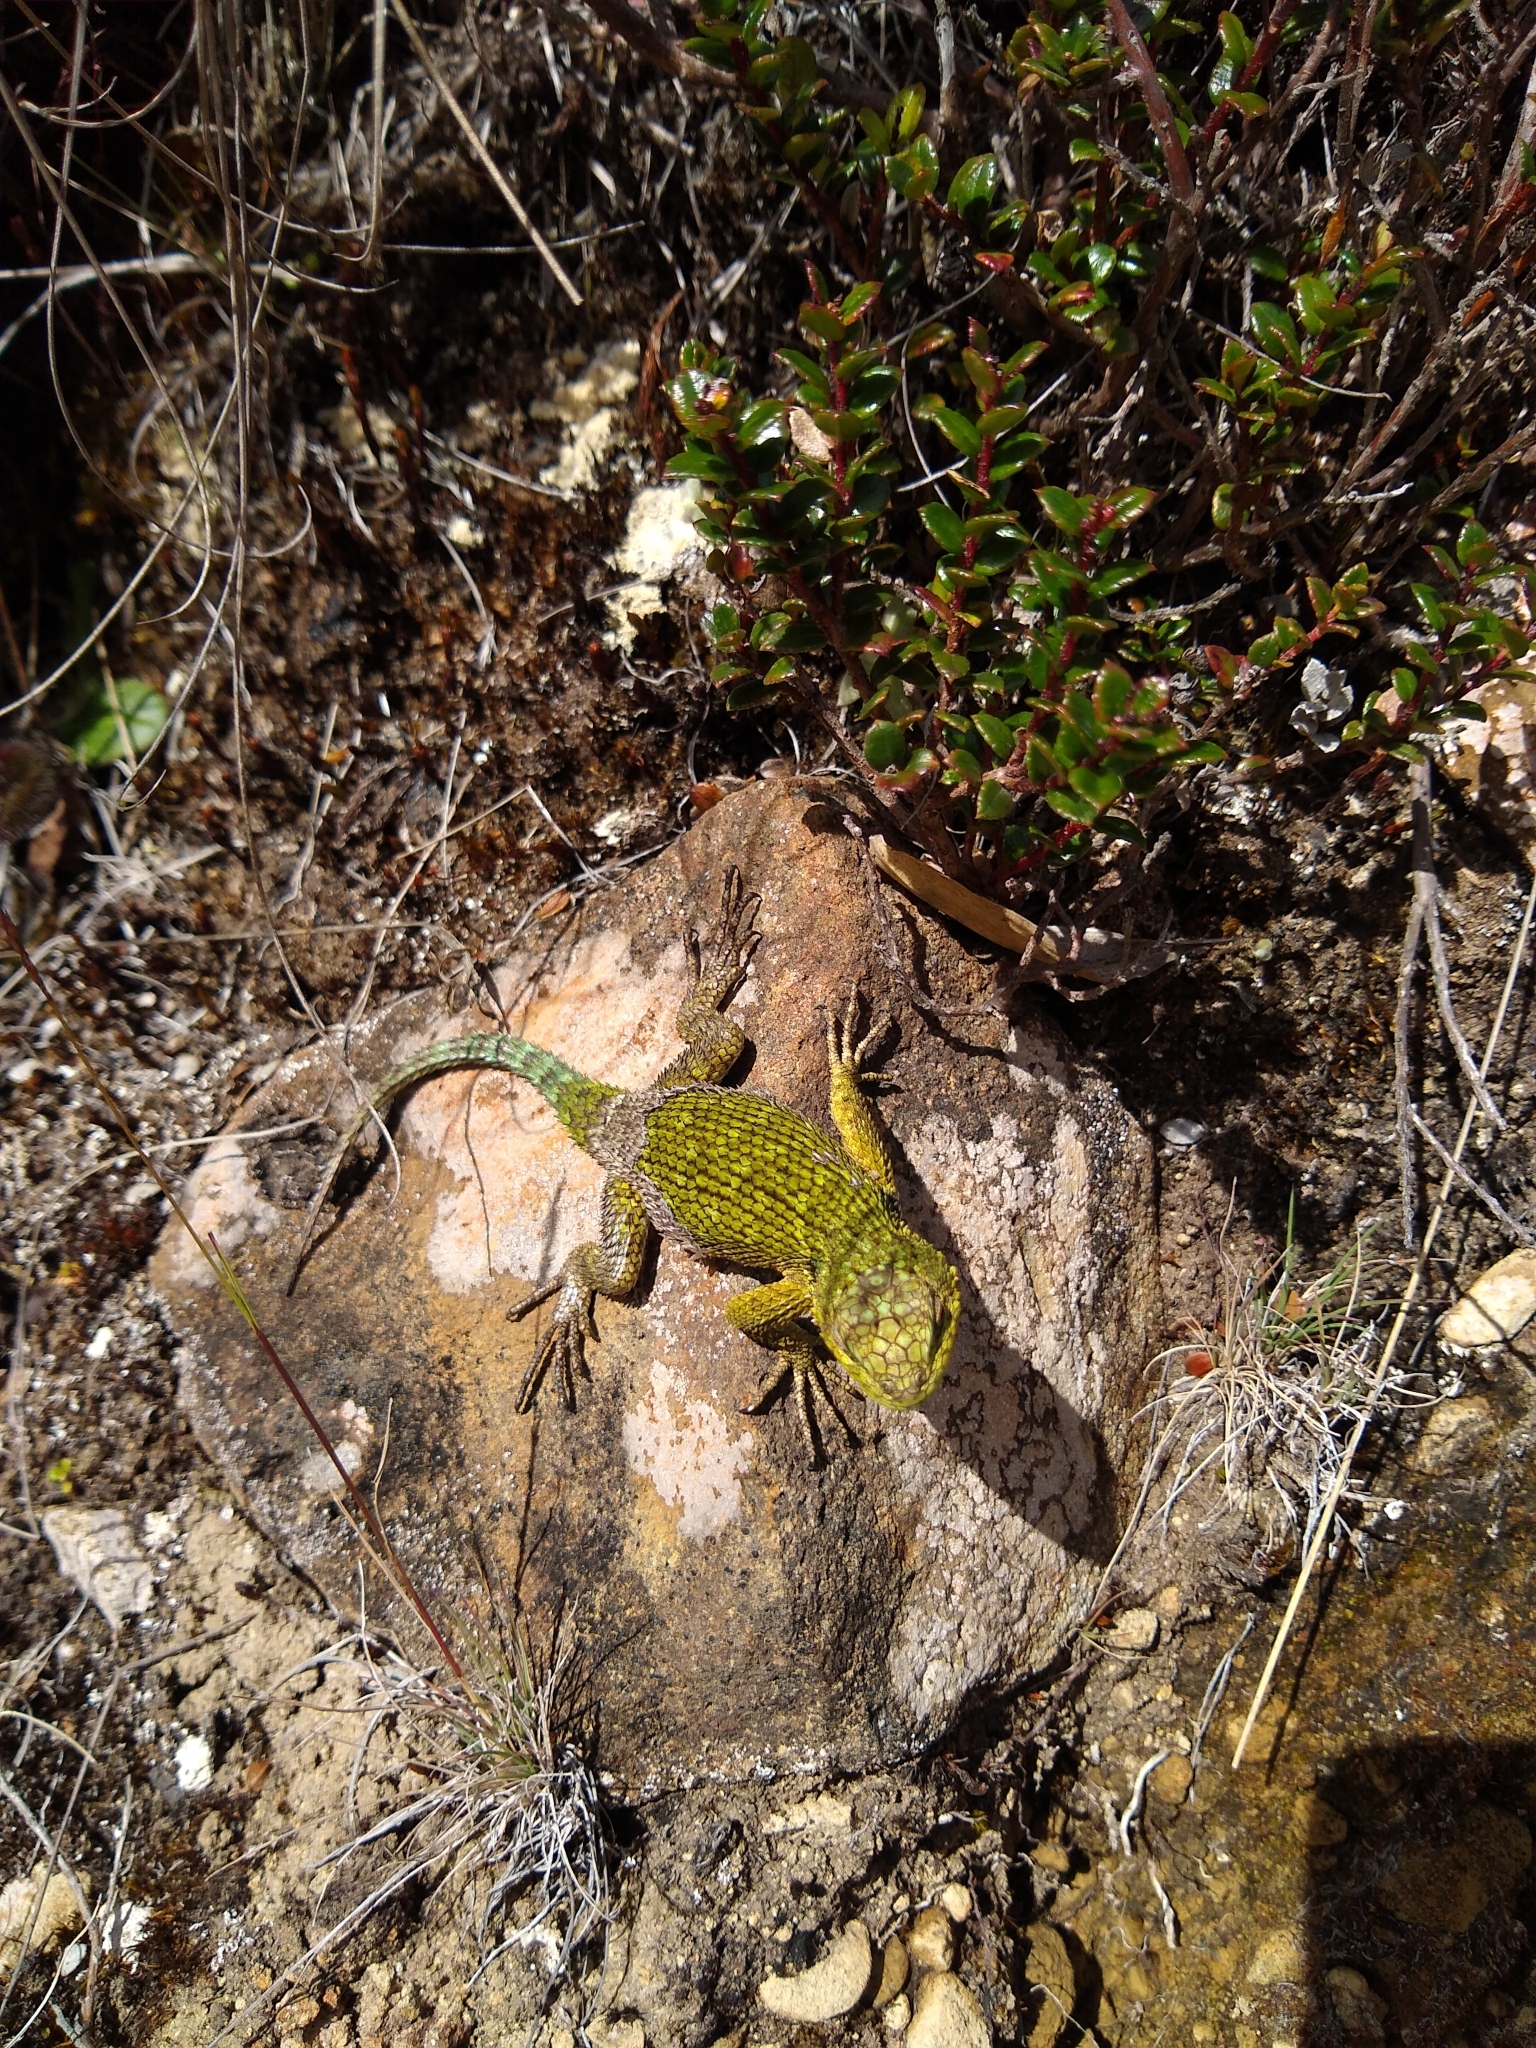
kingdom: Animalia
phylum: Chordata
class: Squamata
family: Phrynosomatidae
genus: Sceloporus
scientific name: Sceloporus malachiticus
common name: Green spiny lizard
